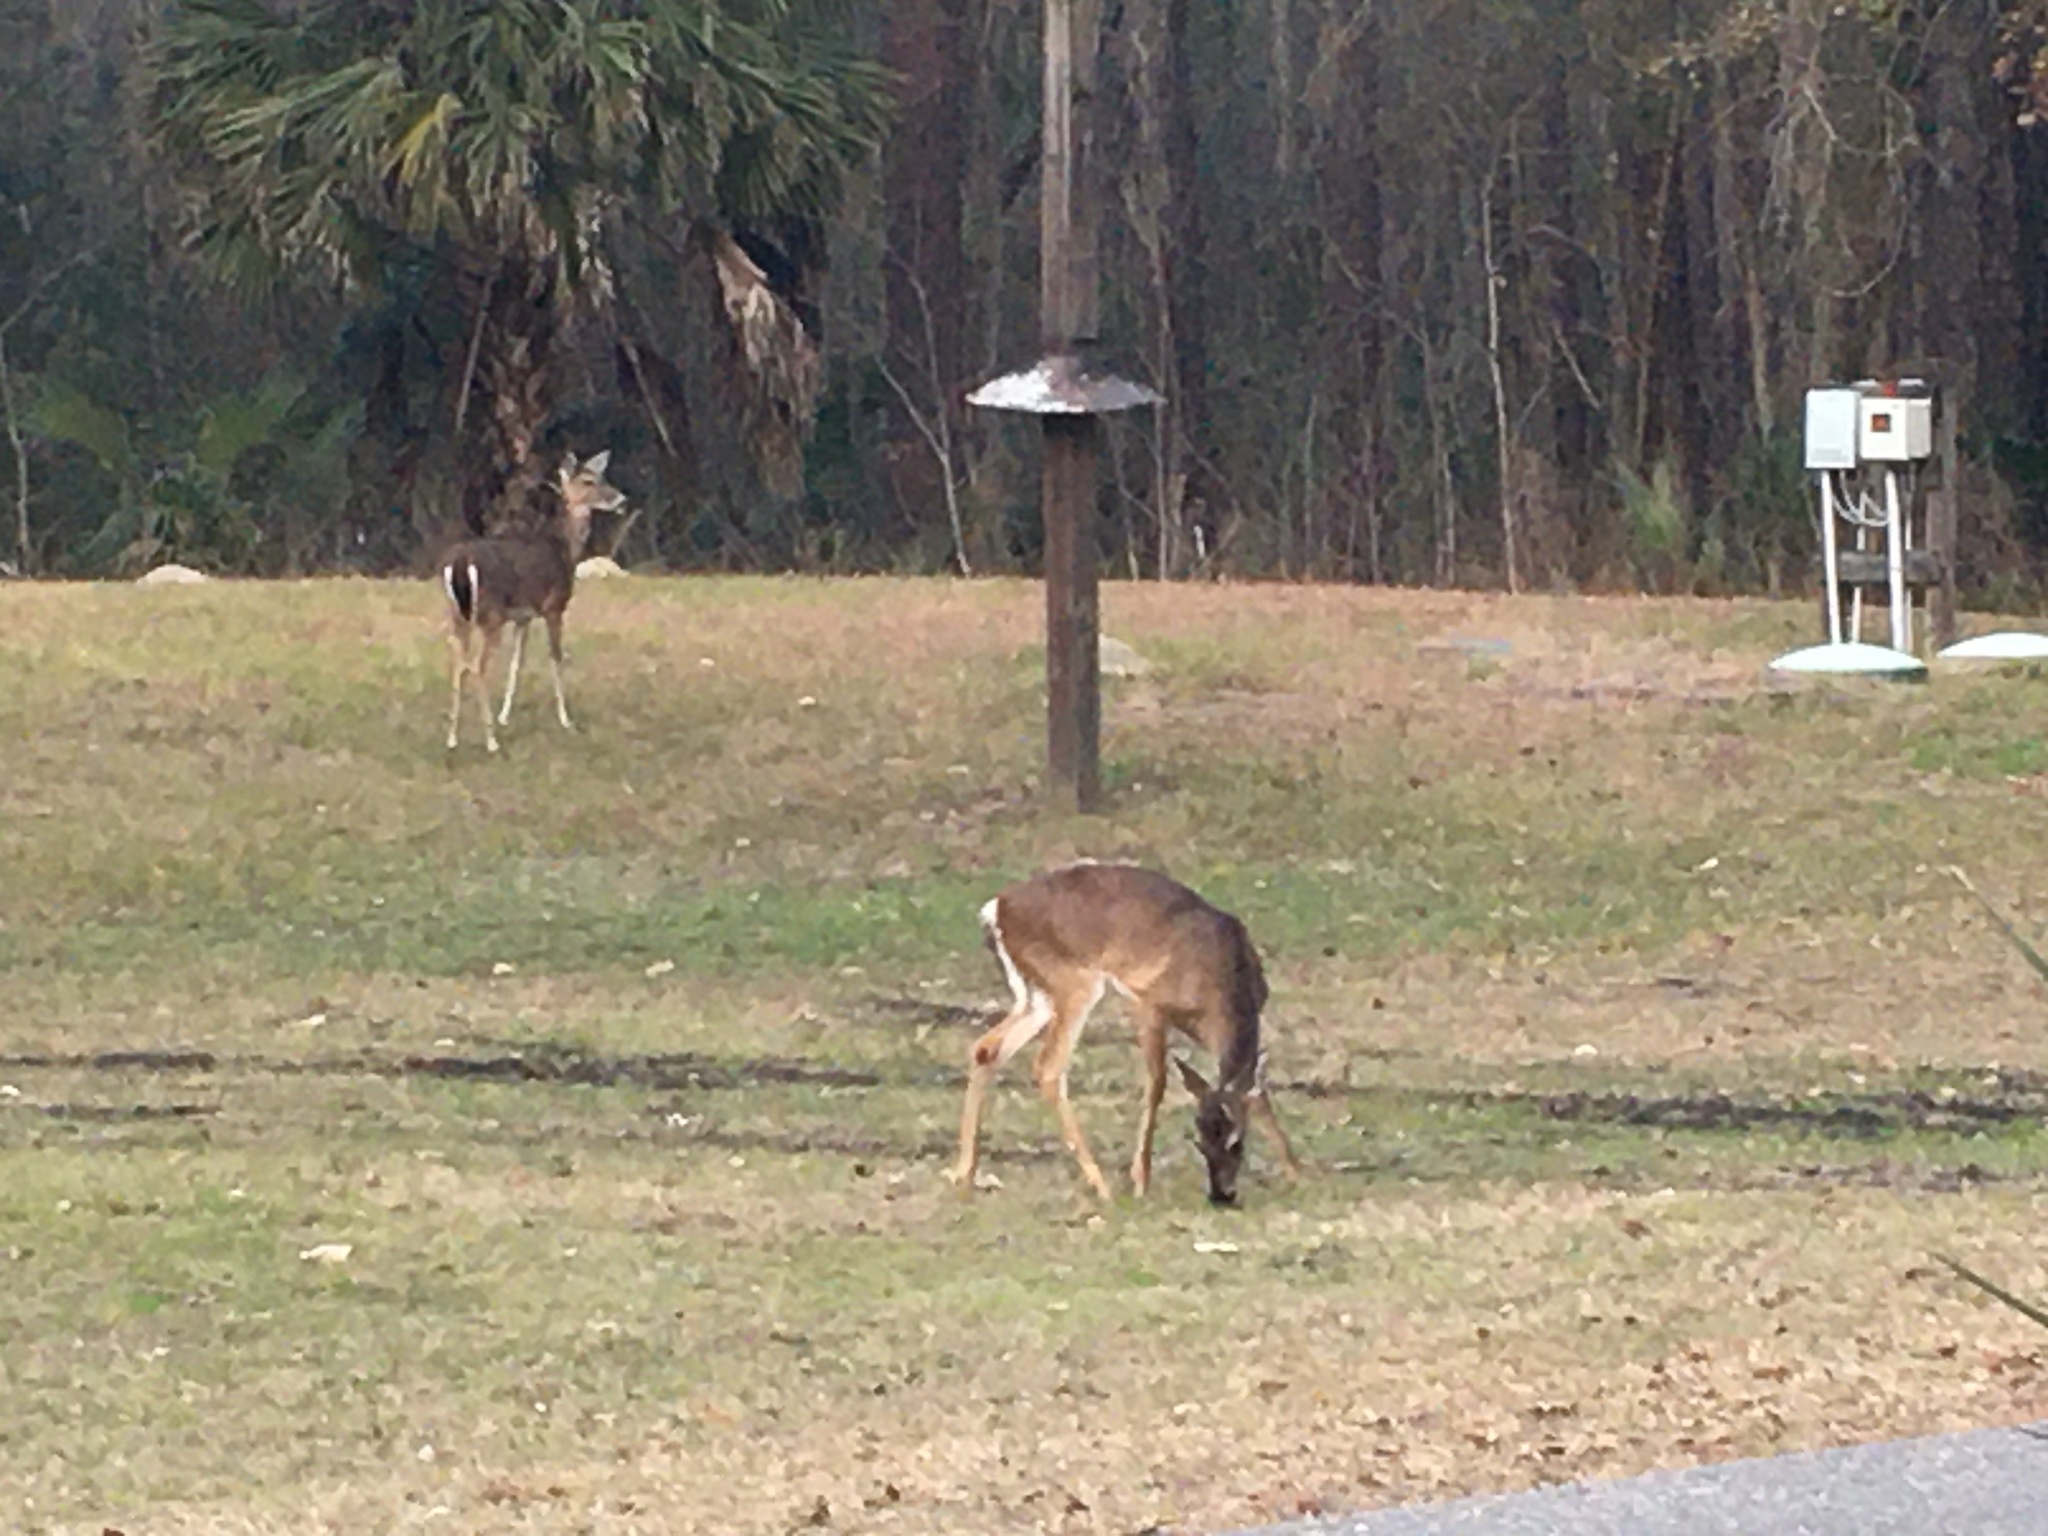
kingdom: Animalia
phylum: Chordata
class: Mammalia
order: Artiodactyla
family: Cervidae
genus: Odocoileus
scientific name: Odocoileus virginianus
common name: White-tailed deer
